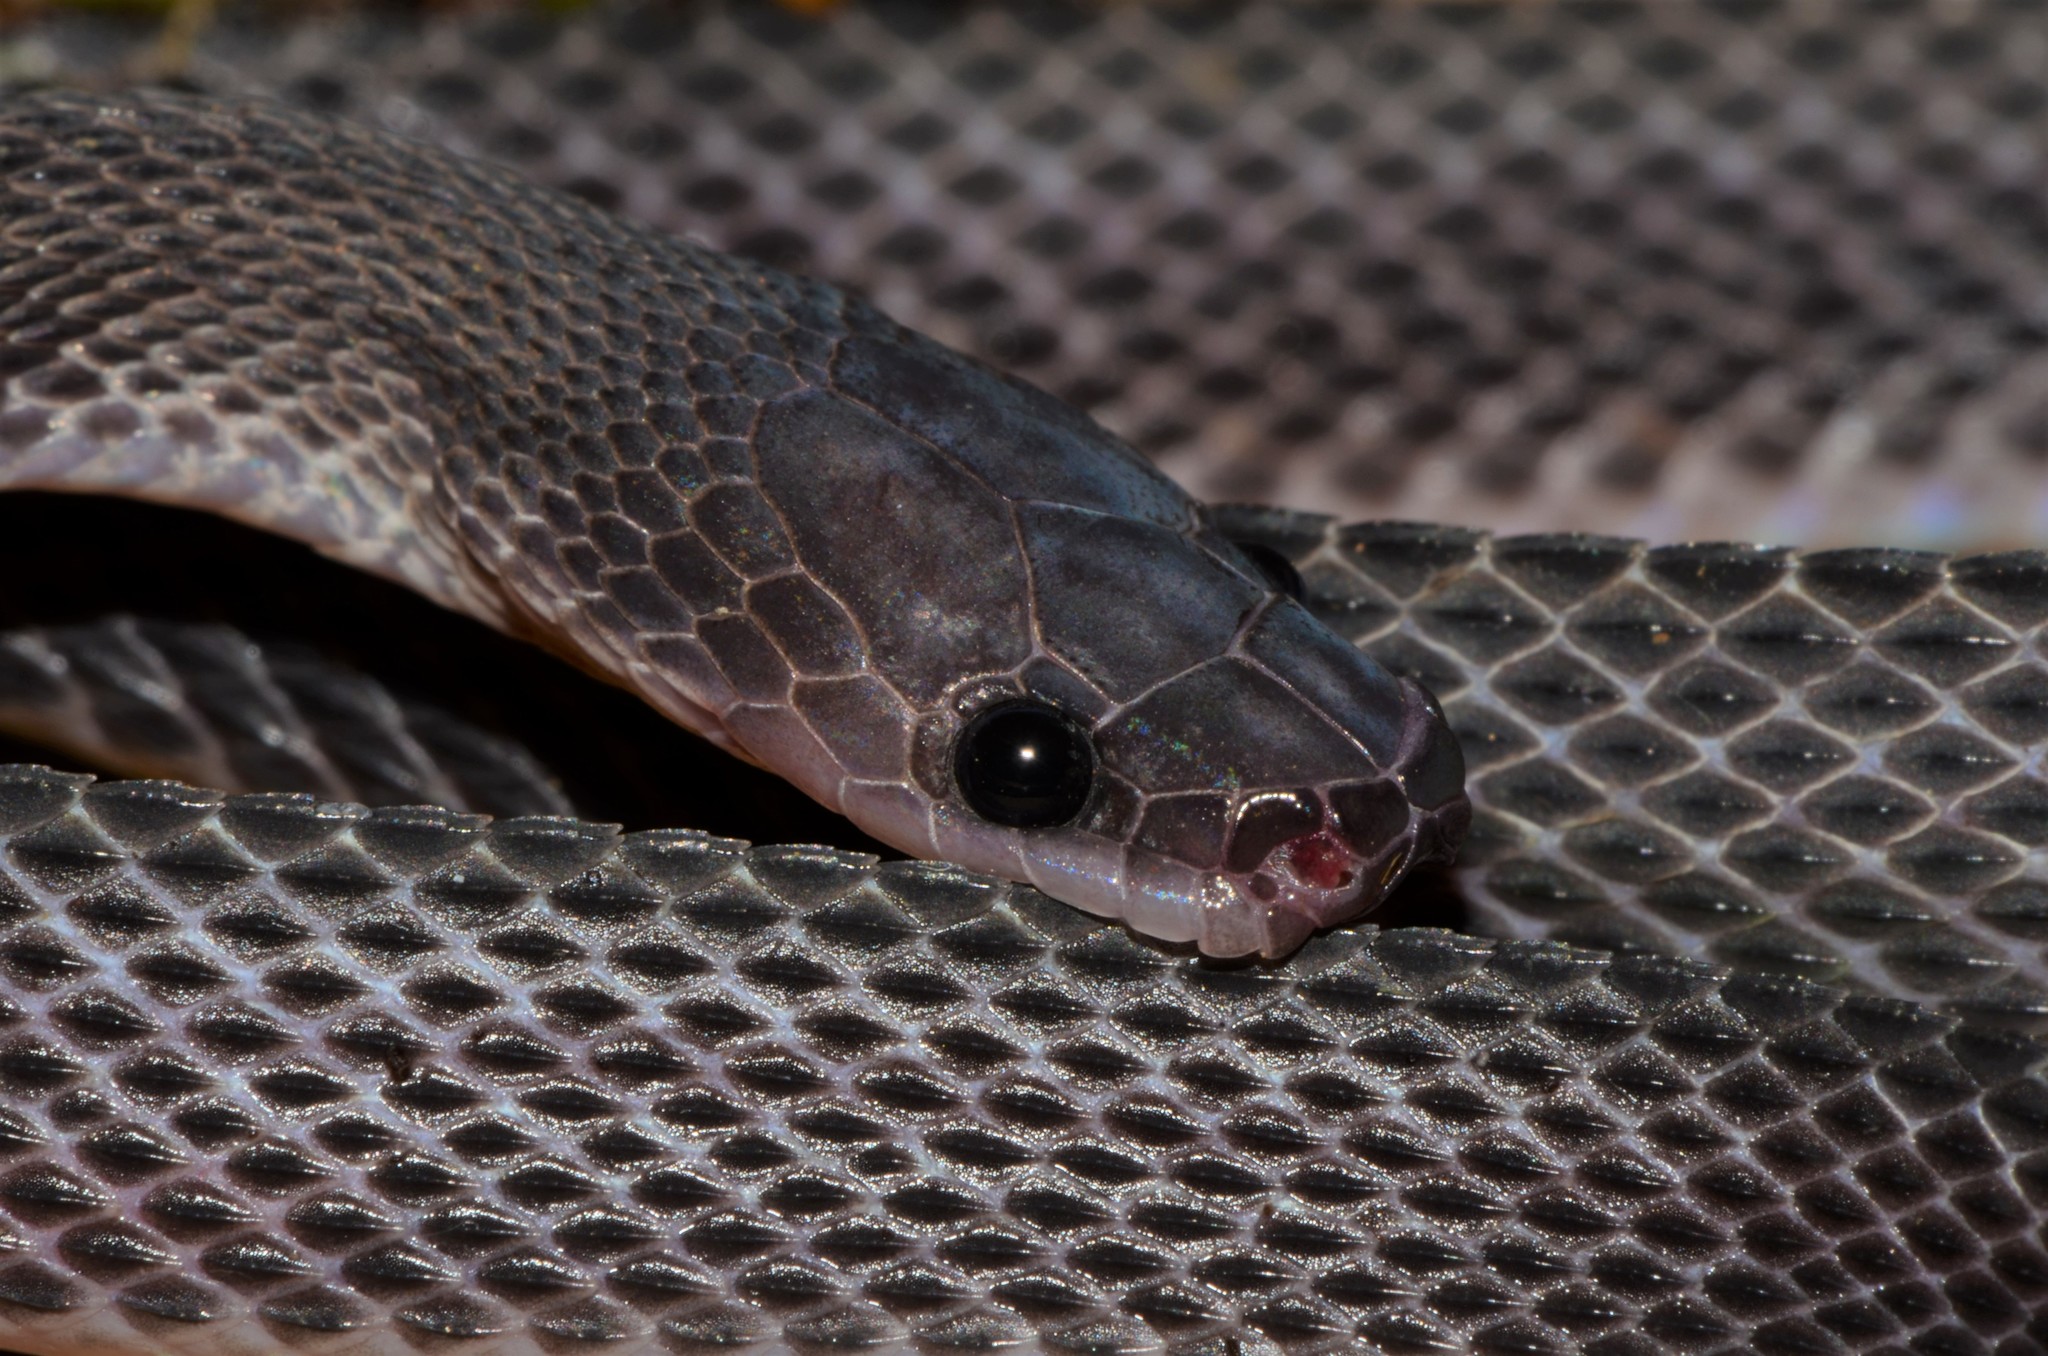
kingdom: Animalia
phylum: Chordata
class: Squamata
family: Lamprophiidae
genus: Gonionotophis
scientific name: Gonionotophis brussauxi
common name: Mocquard's african ground snake
